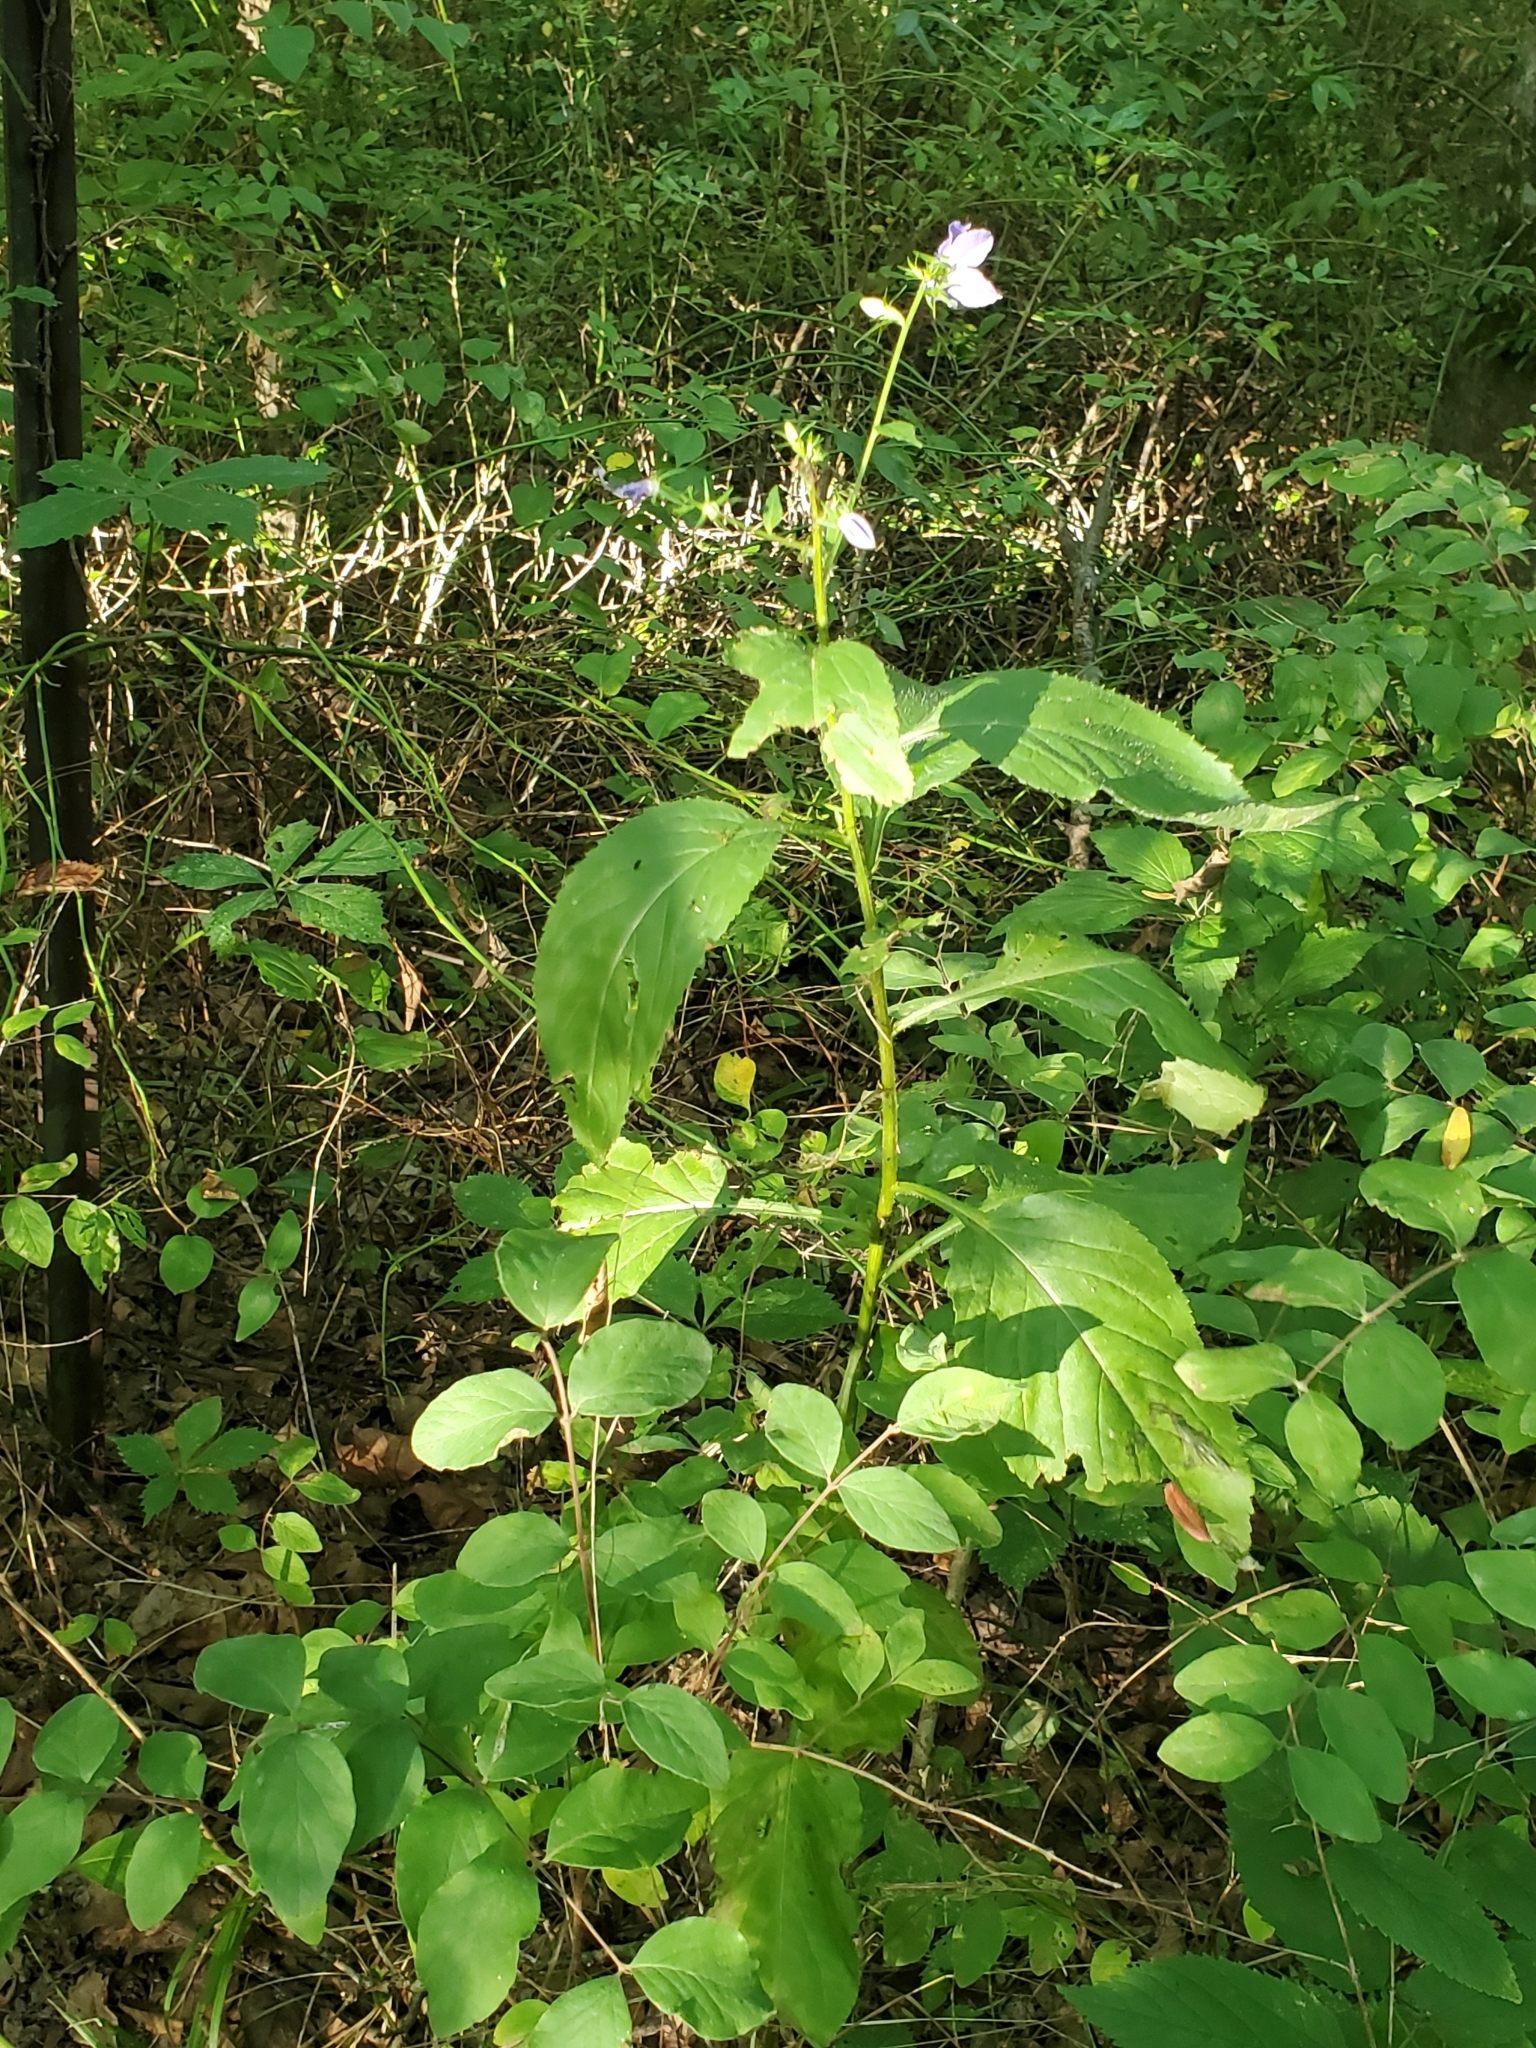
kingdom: Plantae
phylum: Tracheophyta
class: Magnoliopsida
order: Asterales
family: Campanulaceae
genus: Campanulastrum
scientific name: Campanulastrum americanum
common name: American bellflower
